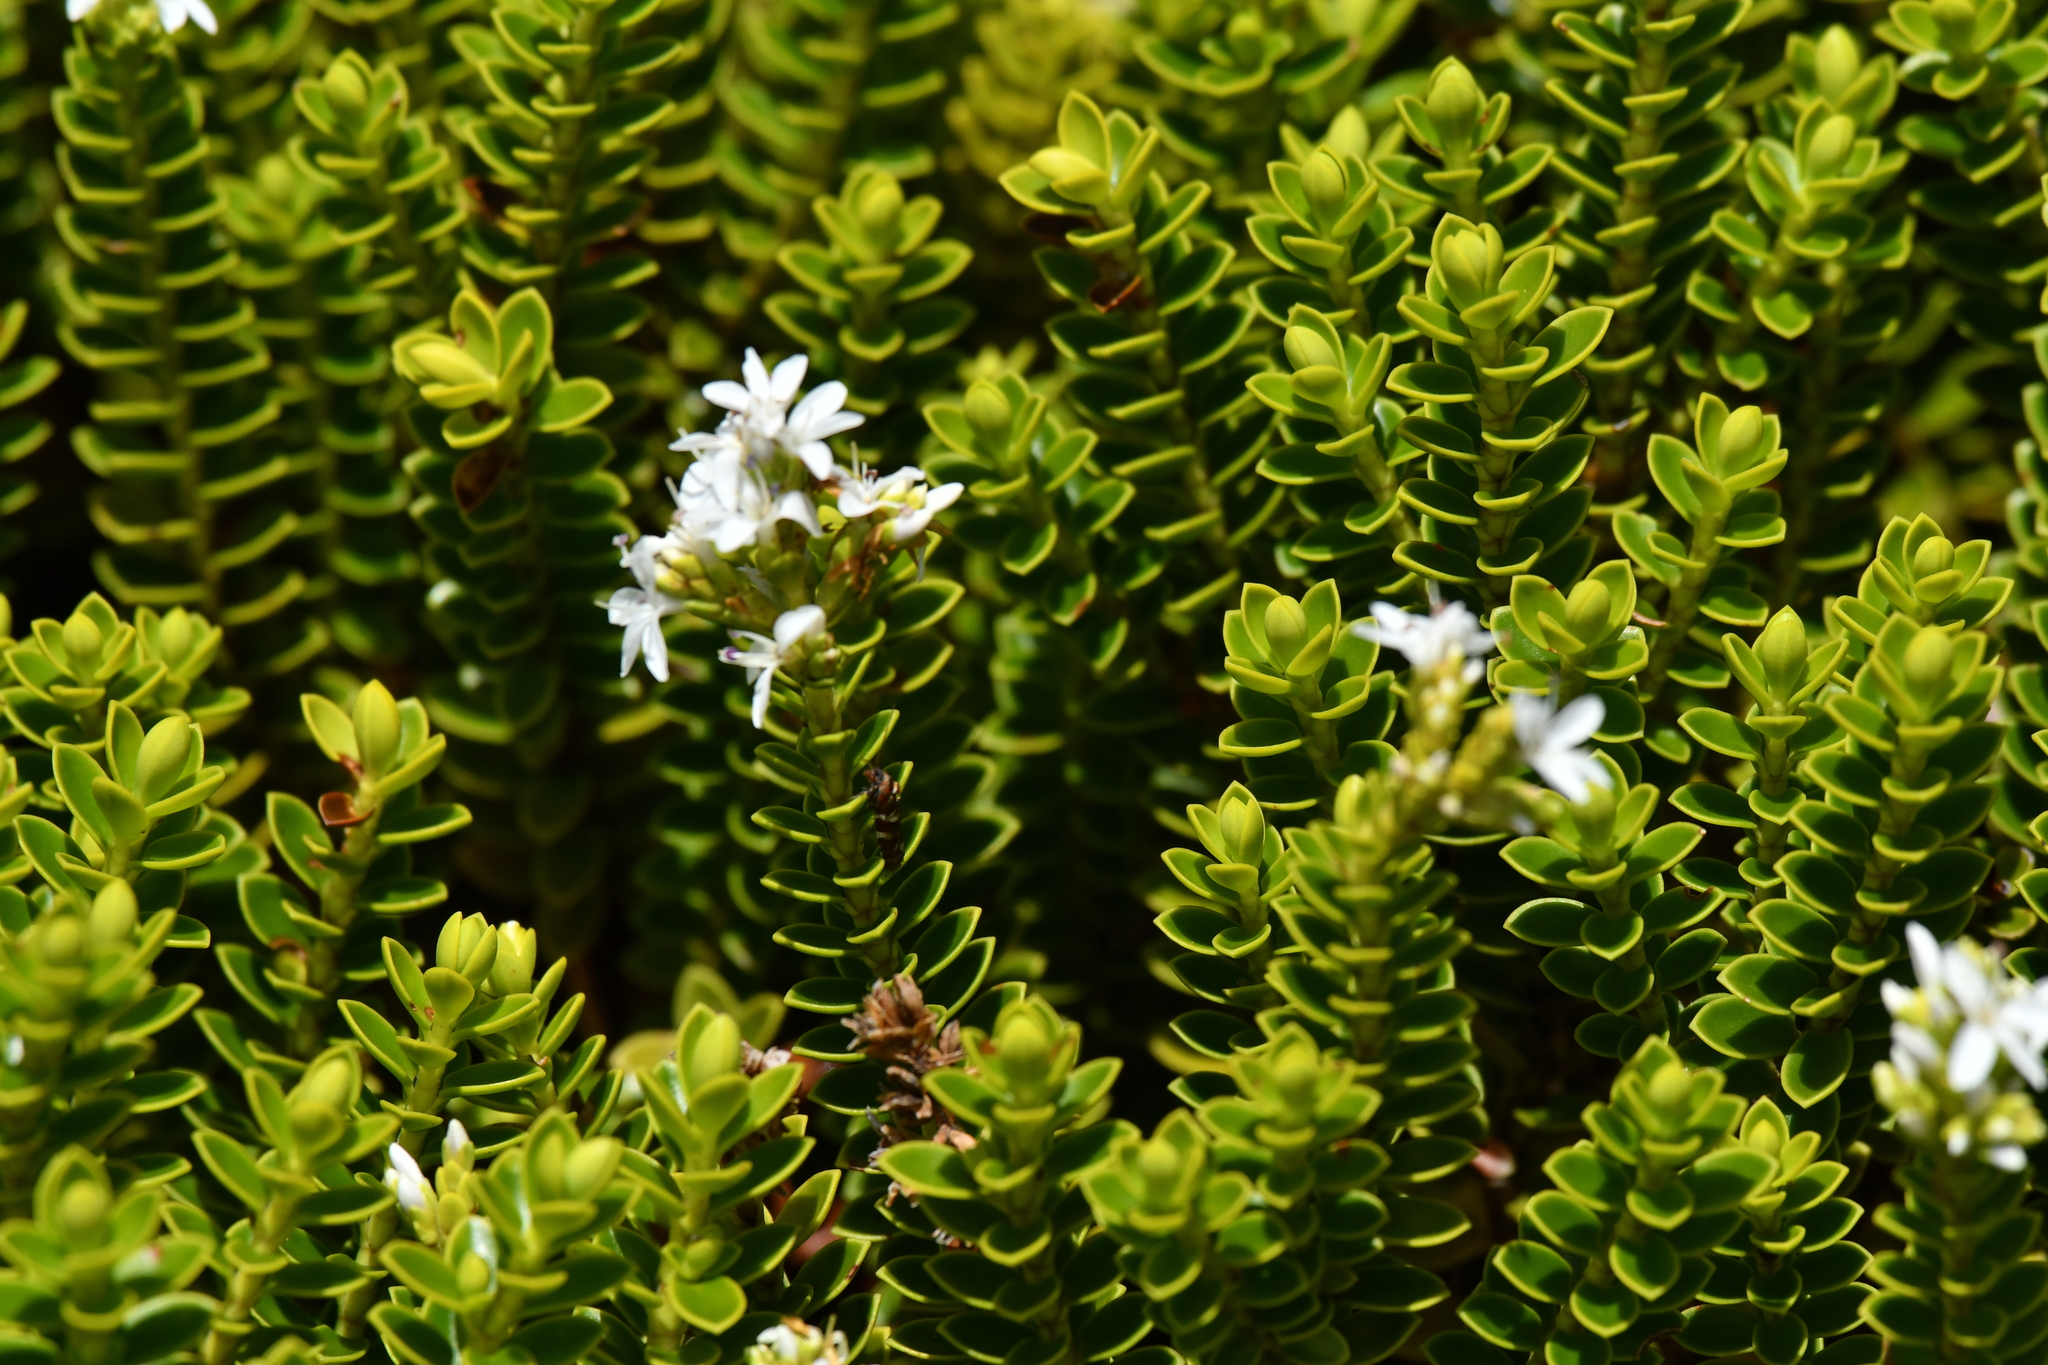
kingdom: Plantae
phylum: Tracheophyta
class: Magnoliopsida
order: Lamiales
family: Plantaginaceae
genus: Veronica
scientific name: Veronica odora
